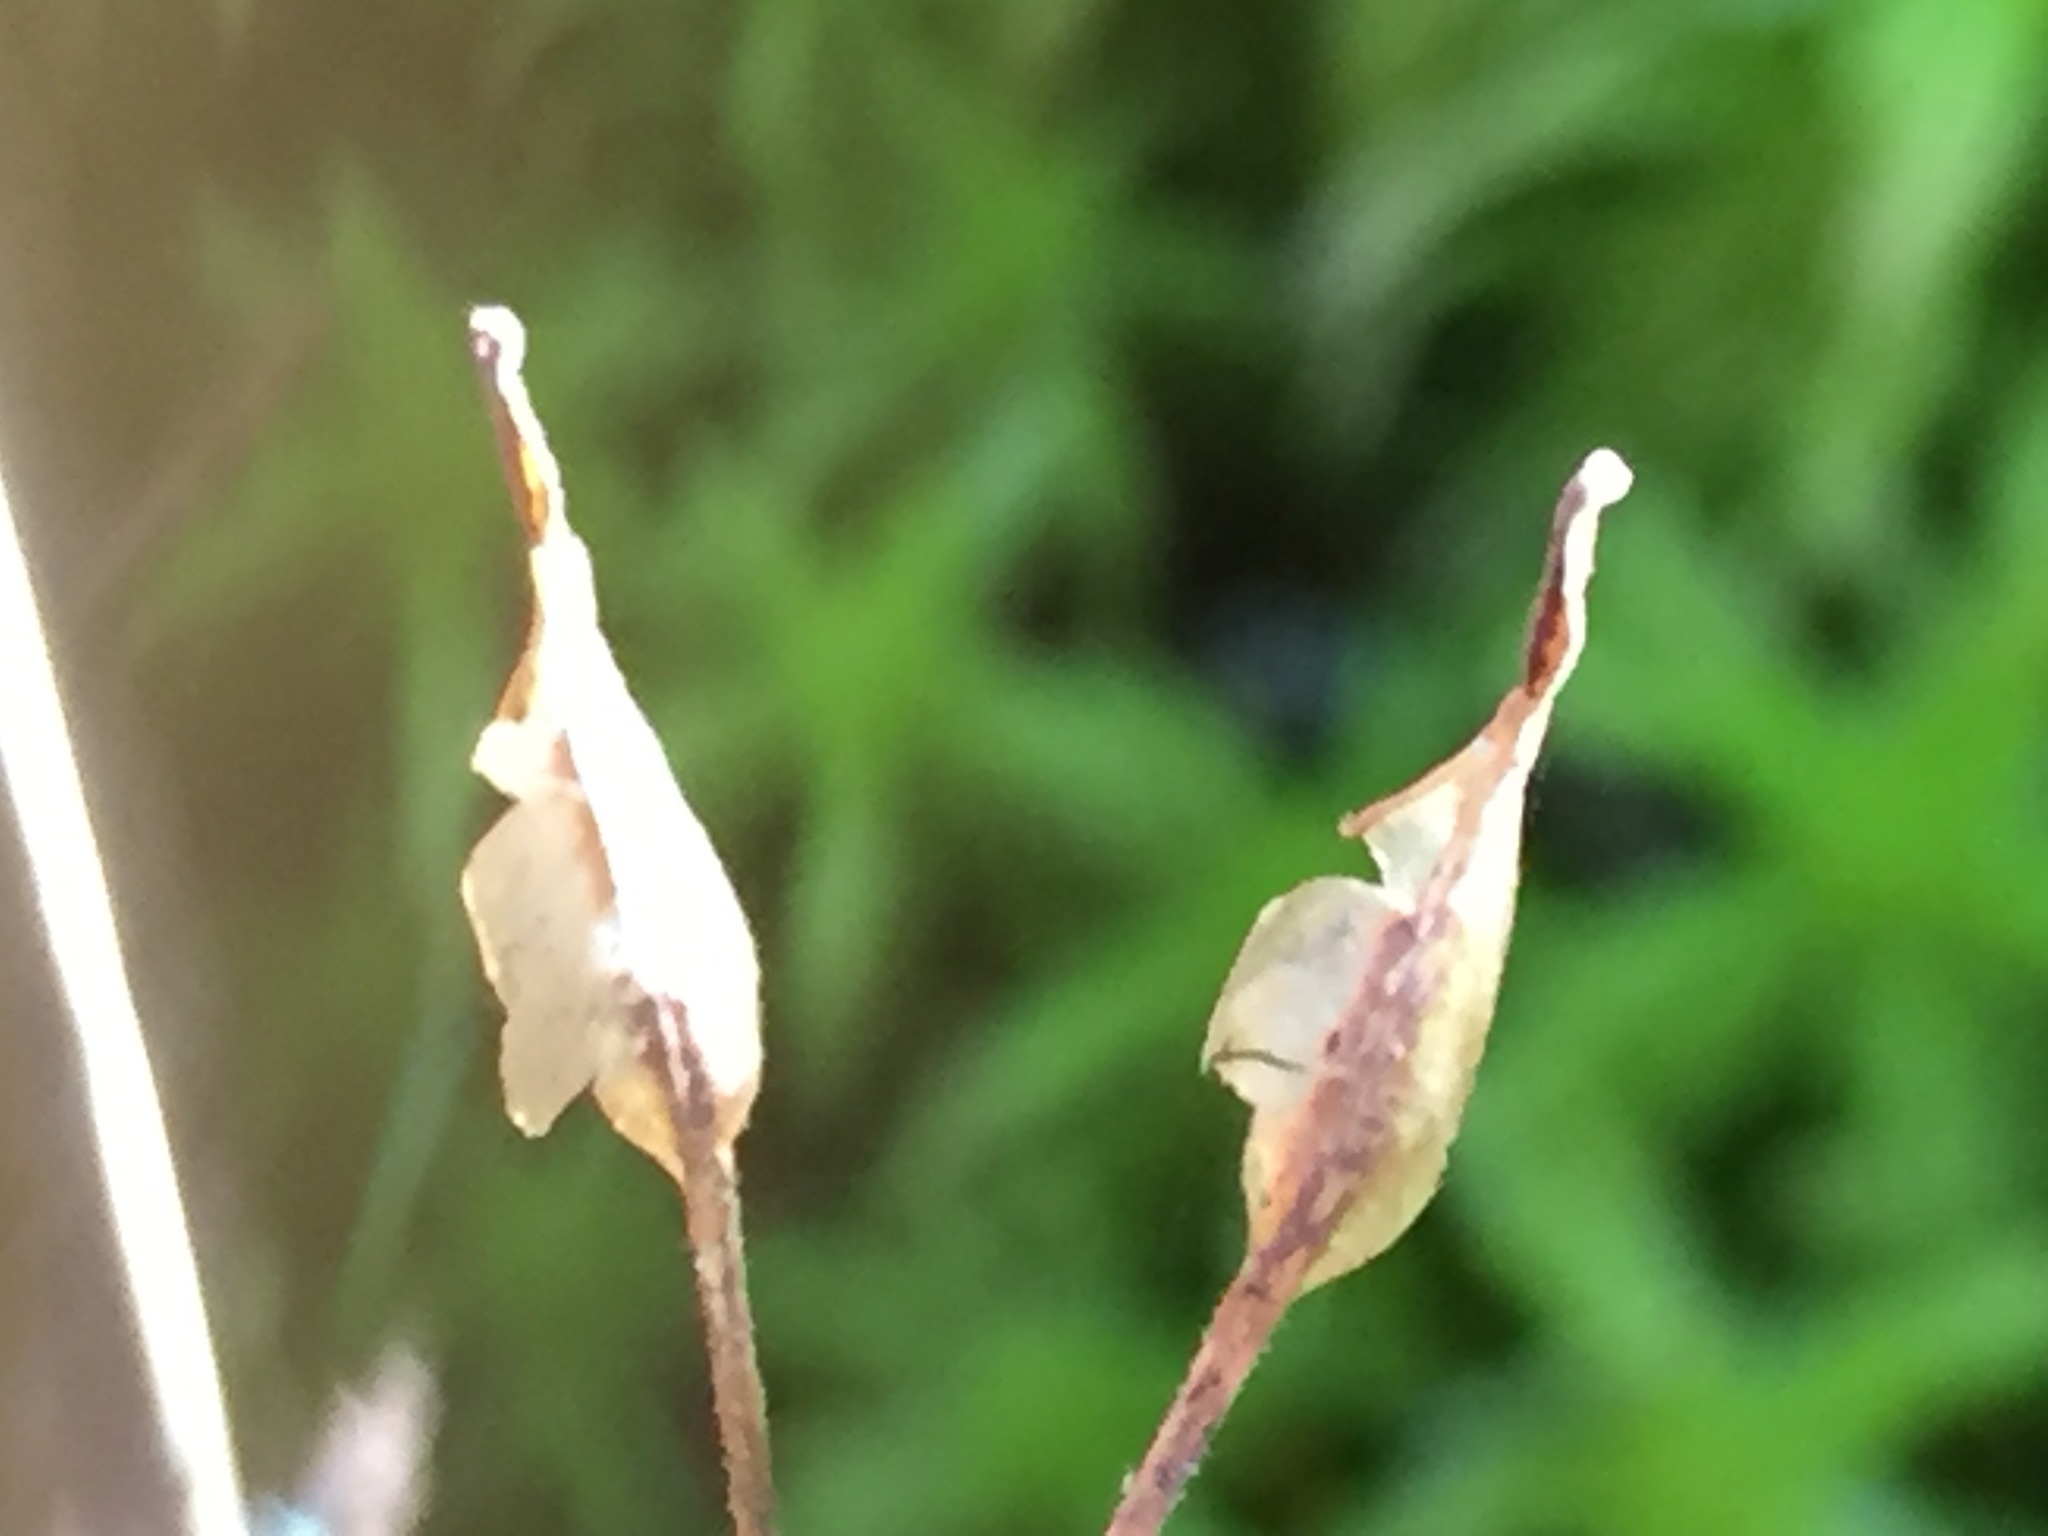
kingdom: Plantae
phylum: Tracheophyta
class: Magnoliopsida
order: Ranunculales
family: Ranunculaceae
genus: Coptis
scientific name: Coptis trifolia
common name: Canker-root
